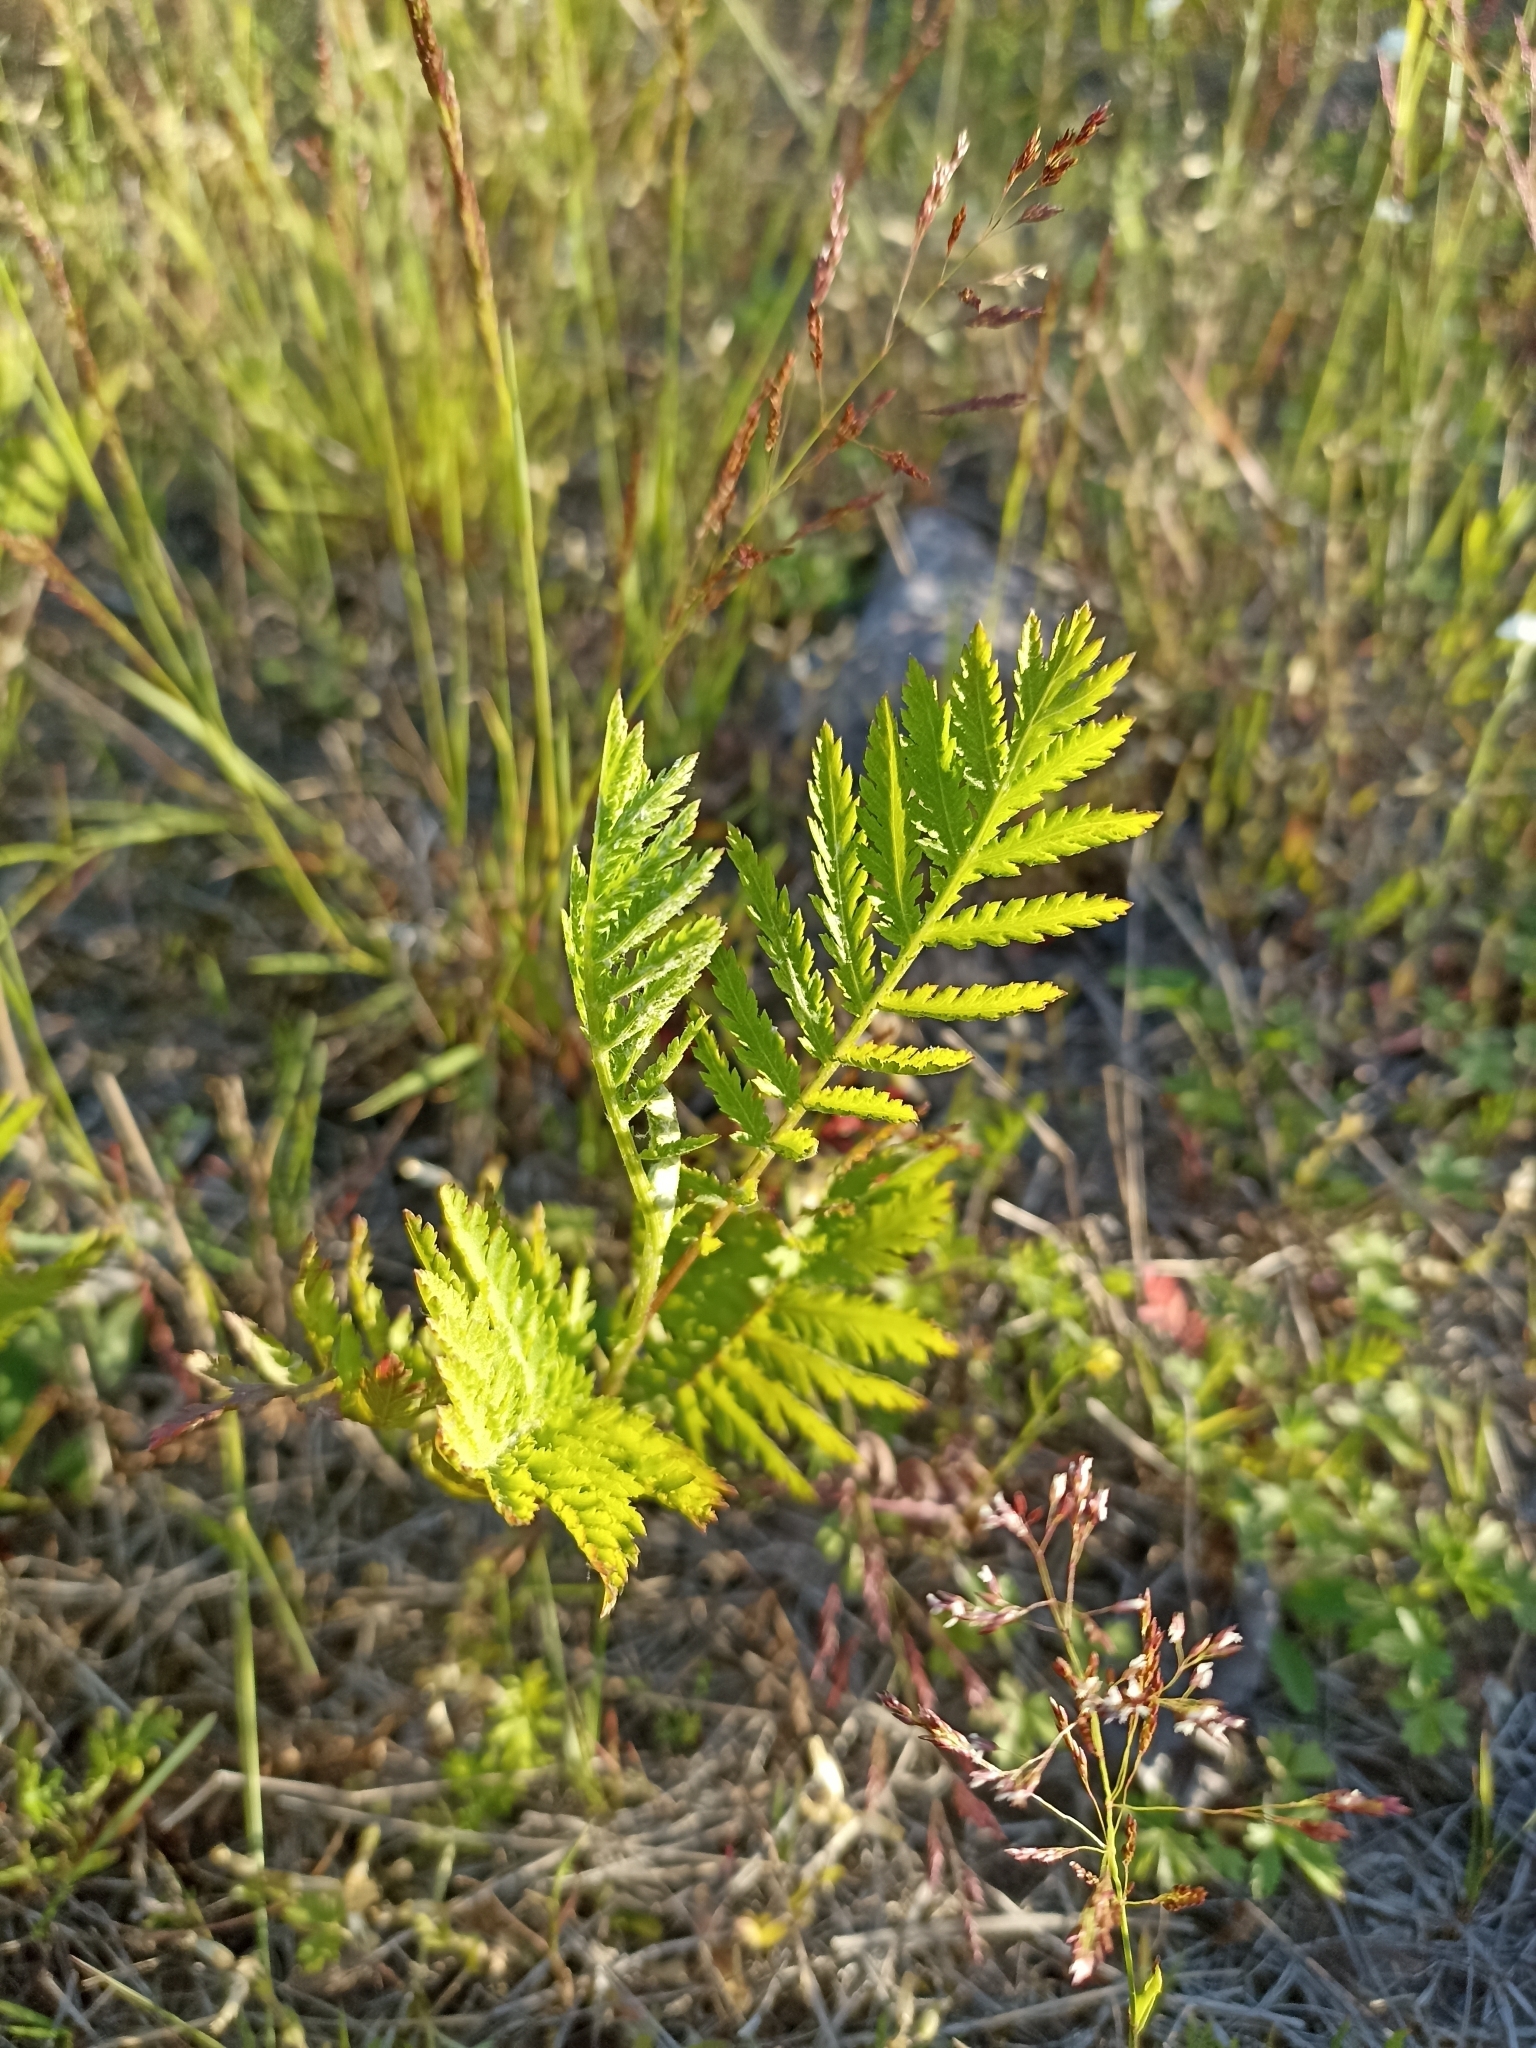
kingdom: Plantae
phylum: Tracheophyta
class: Magnoliopsida
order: Asterales
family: Asteraceae
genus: Tanacetum
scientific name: Tanacetum vulgare
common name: Common tansy
